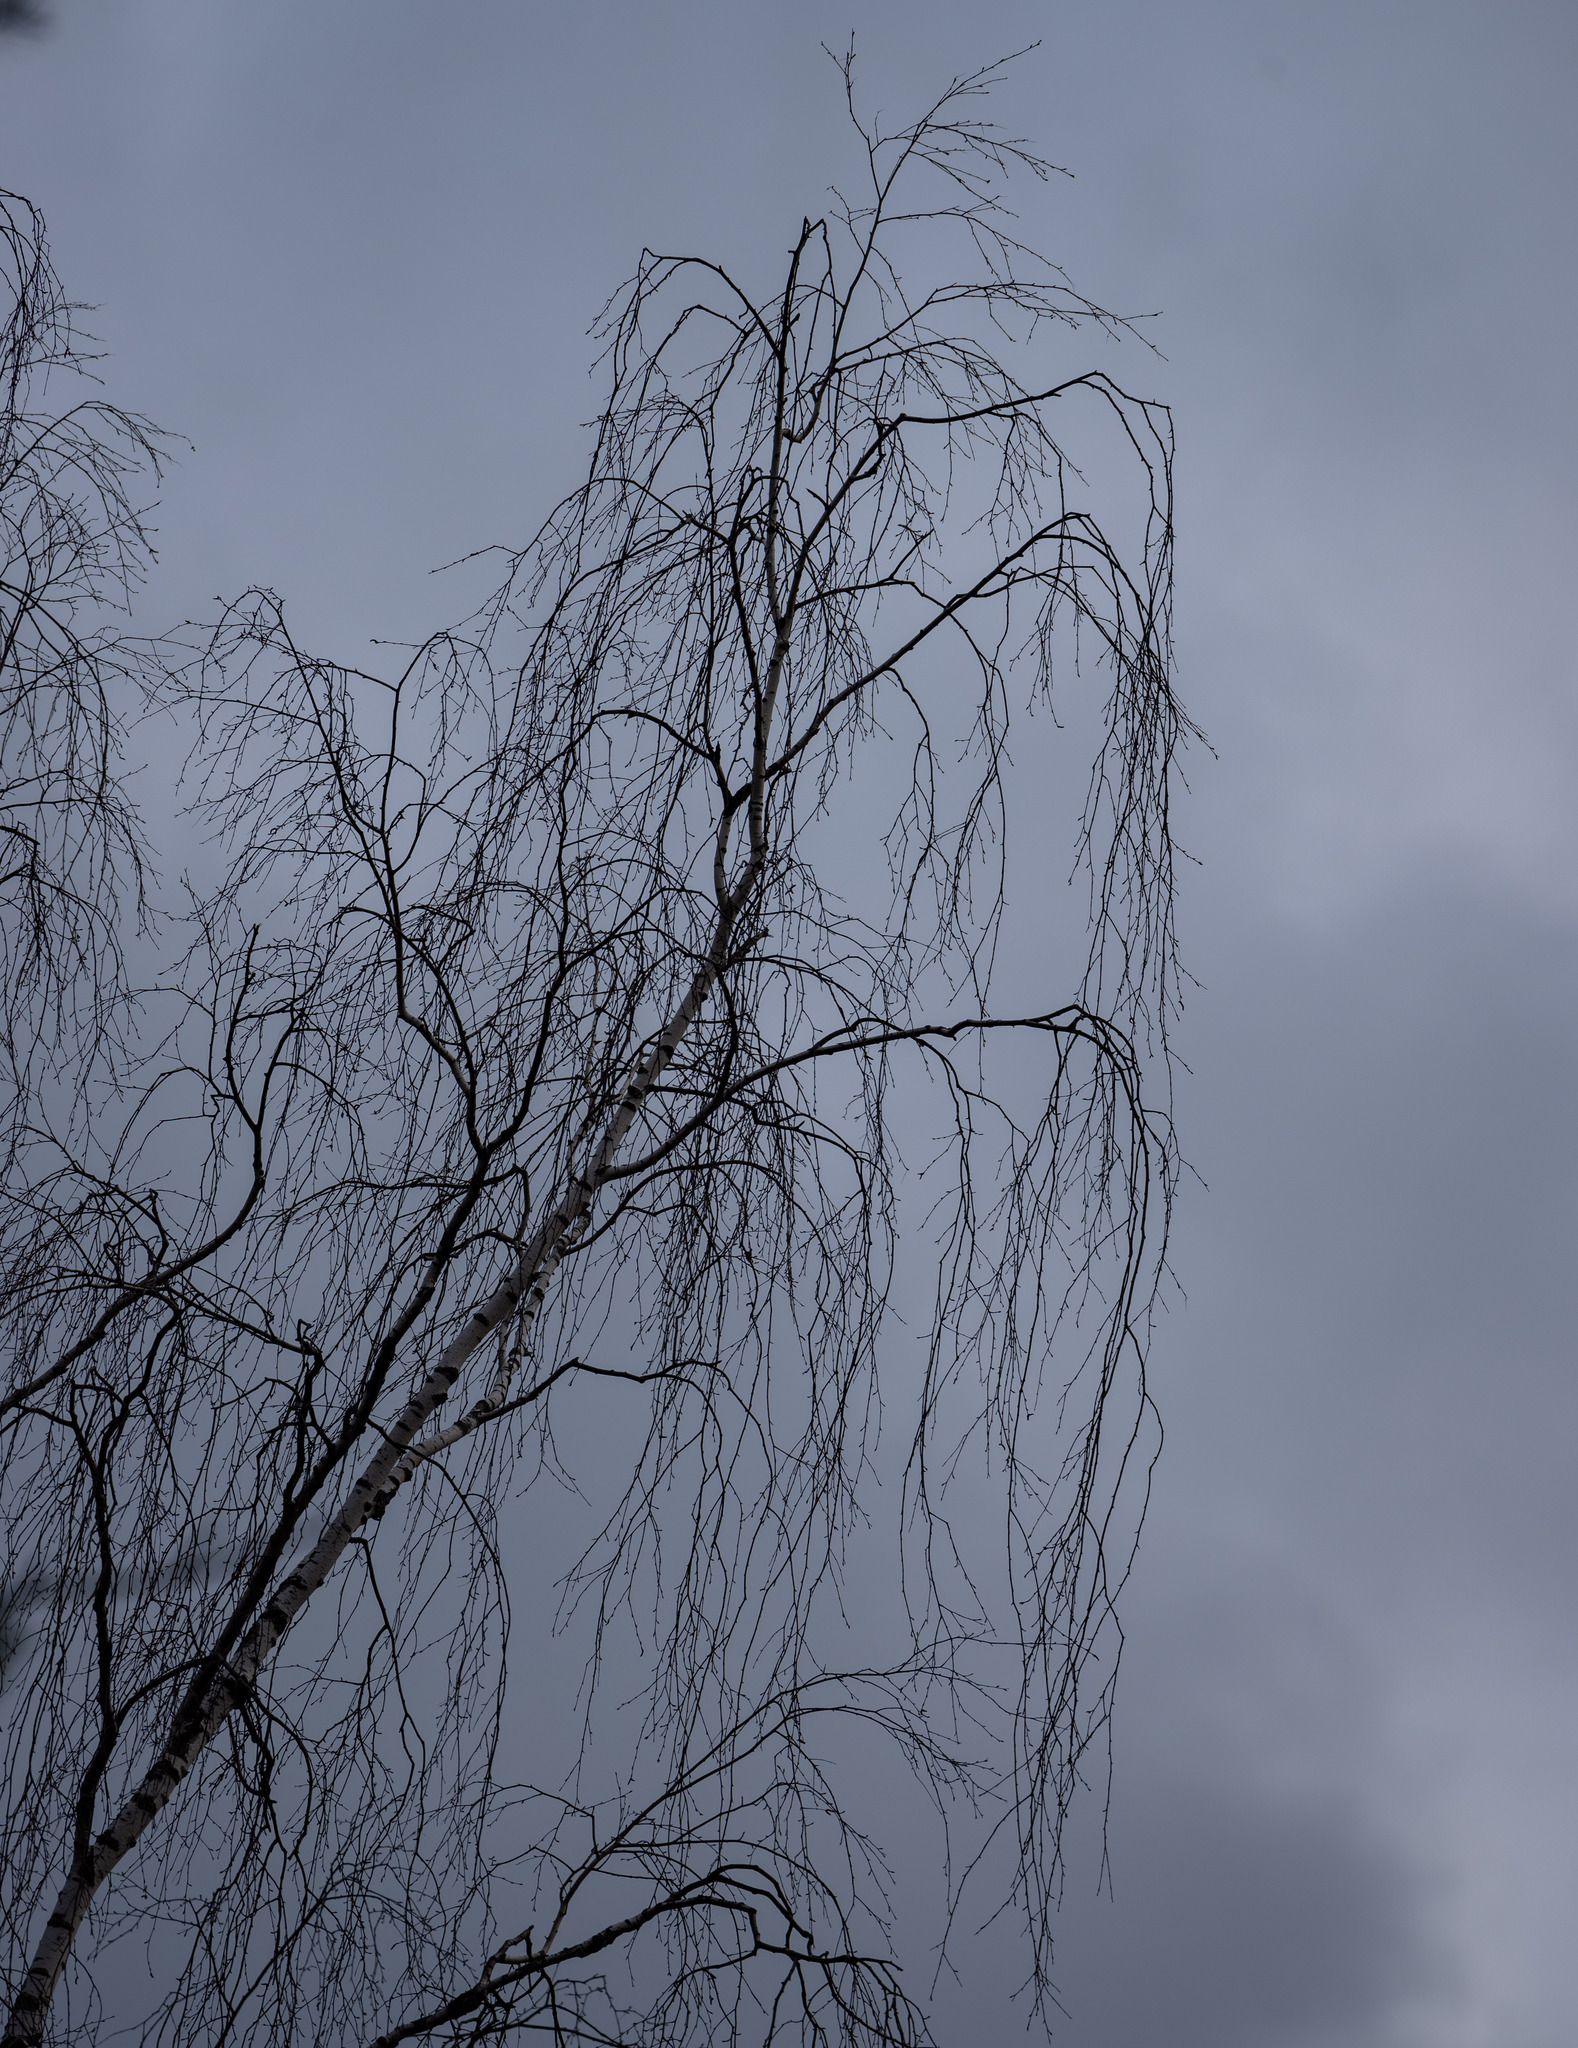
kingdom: Plantae
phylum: Tracheophyta
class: Magnoliopsida
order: Fagales
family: Betulaceae
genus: Betula
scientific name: Betula pendula
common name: Silver birch
